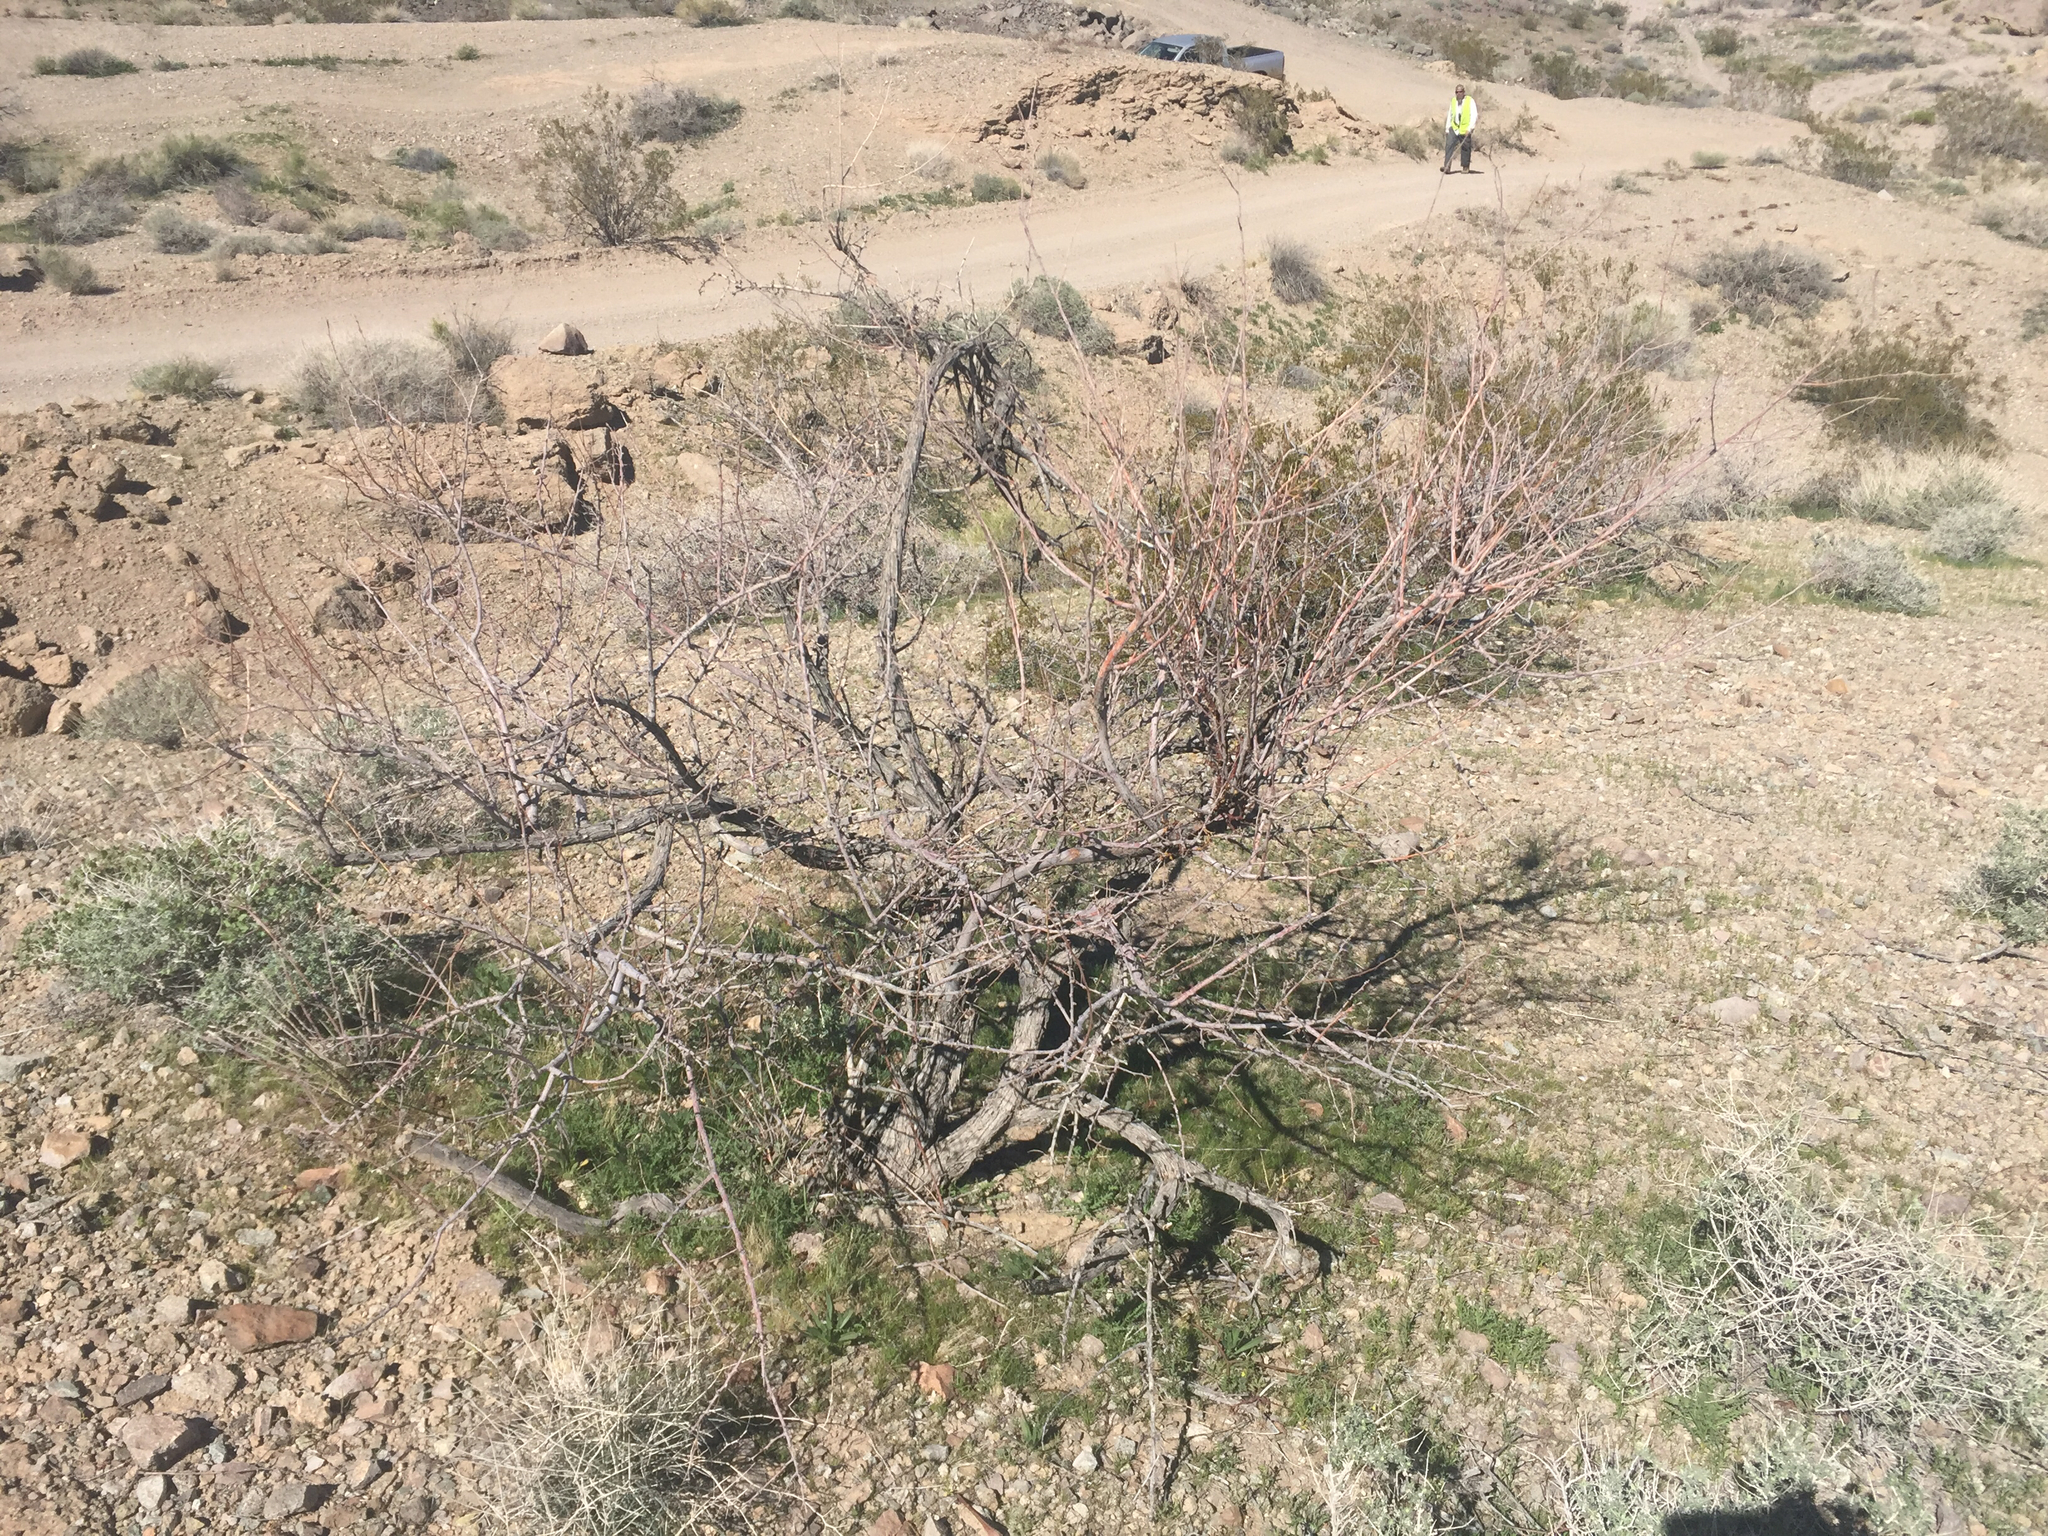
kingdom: Plantae
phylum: Tracheophyta
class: Magnoliopsida
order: Fabales
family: Fabaceae
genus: Senegalia
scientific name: Senegalia greggii
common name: Texas-mimosa
